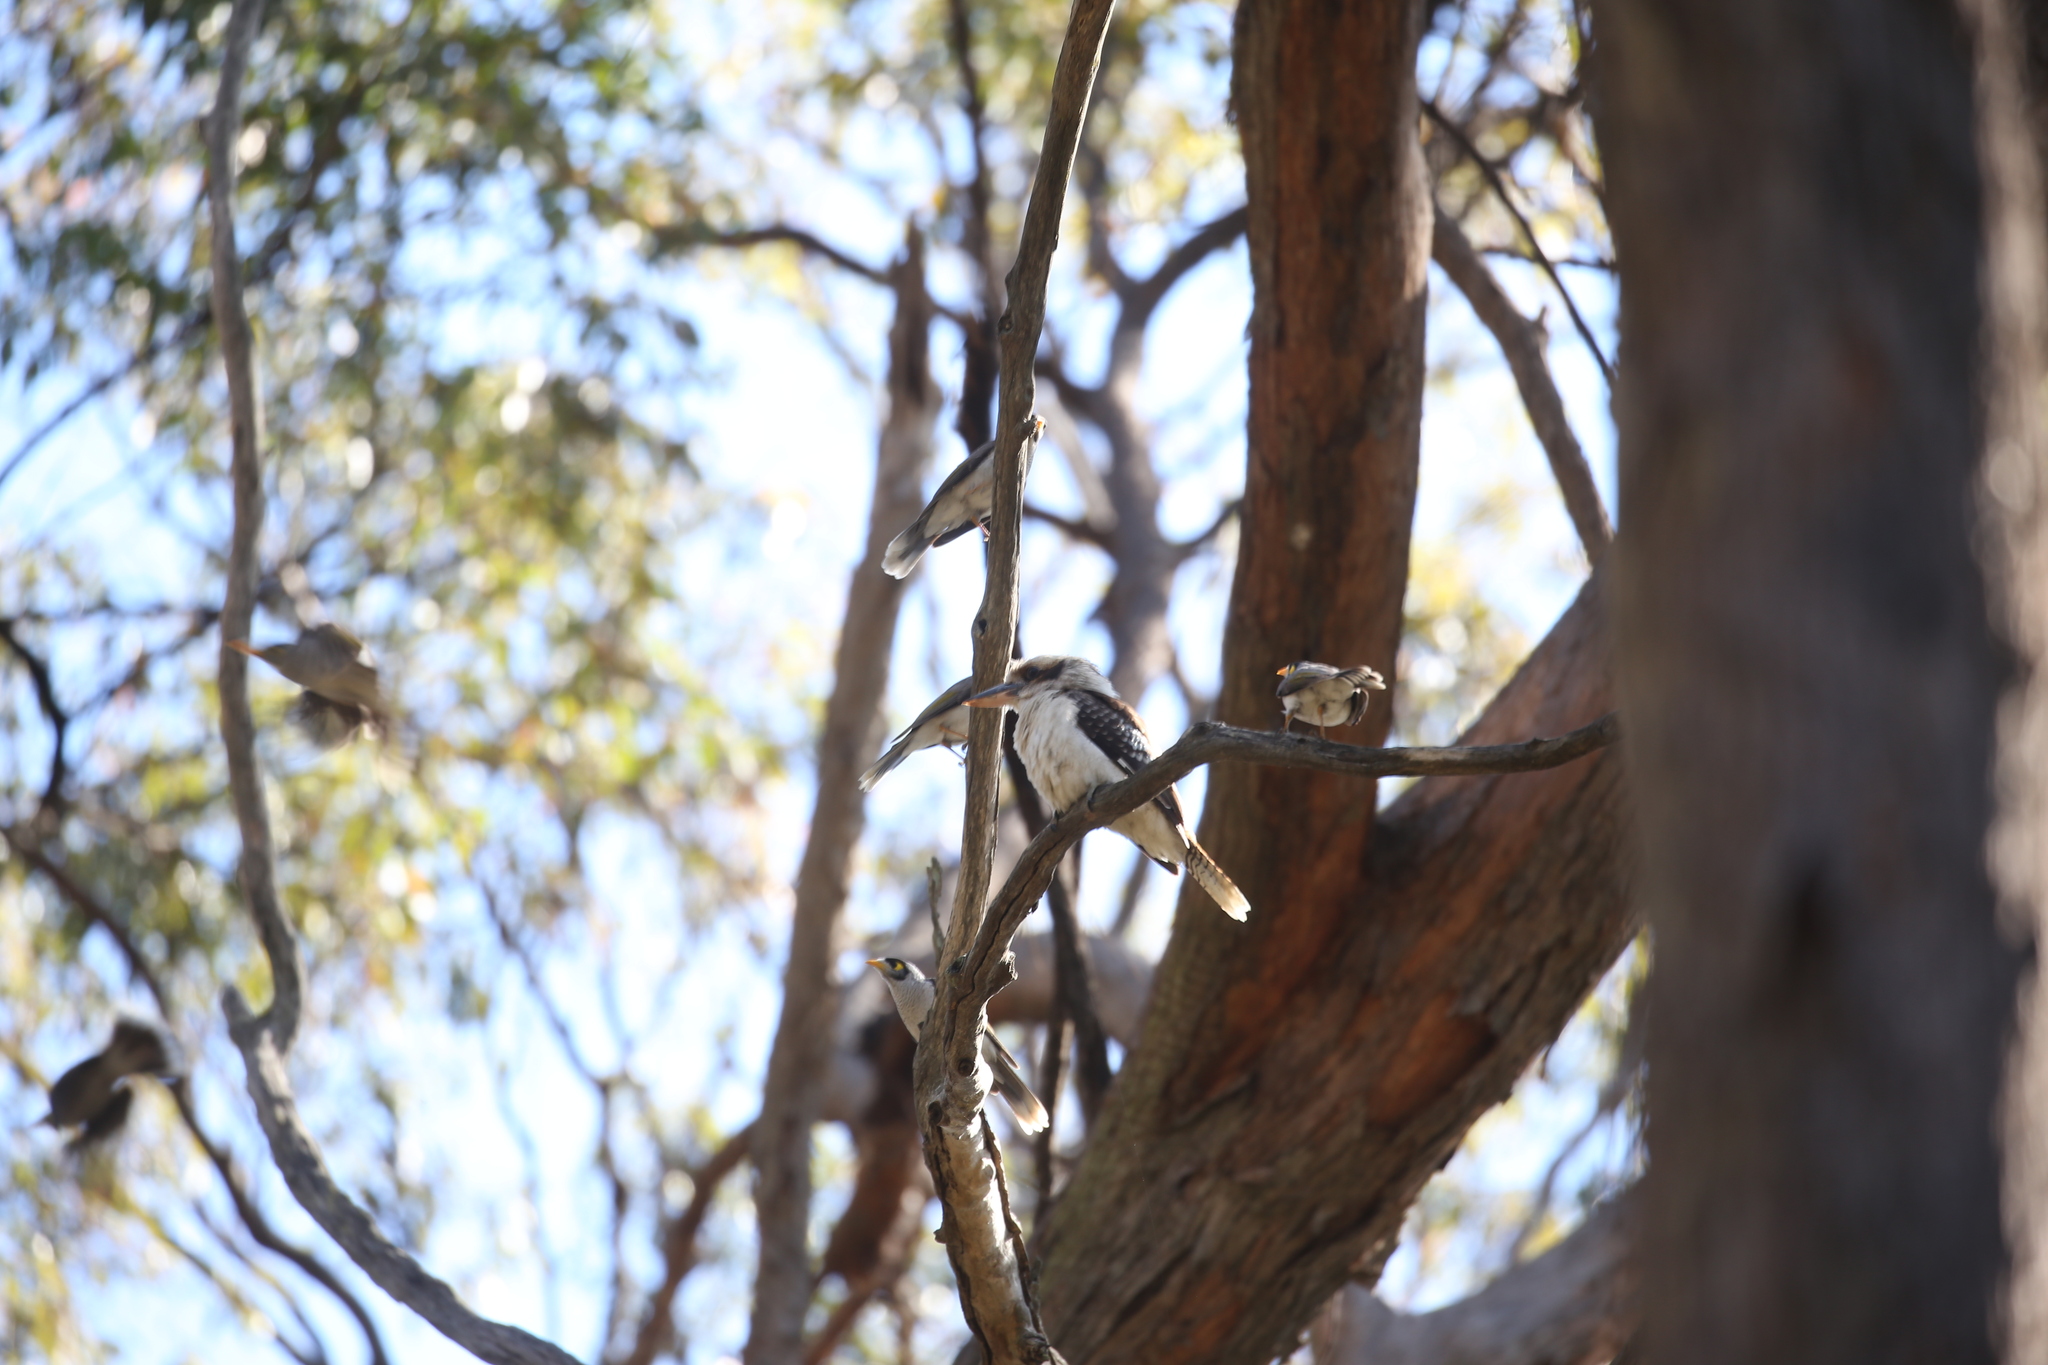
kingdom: Animalia
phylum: Chordata
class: Aves
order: Coraciiformes
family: Alcedinidae
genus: Dacelo
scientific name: Dacelo novaeguineae
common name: Laughing kookaburra
